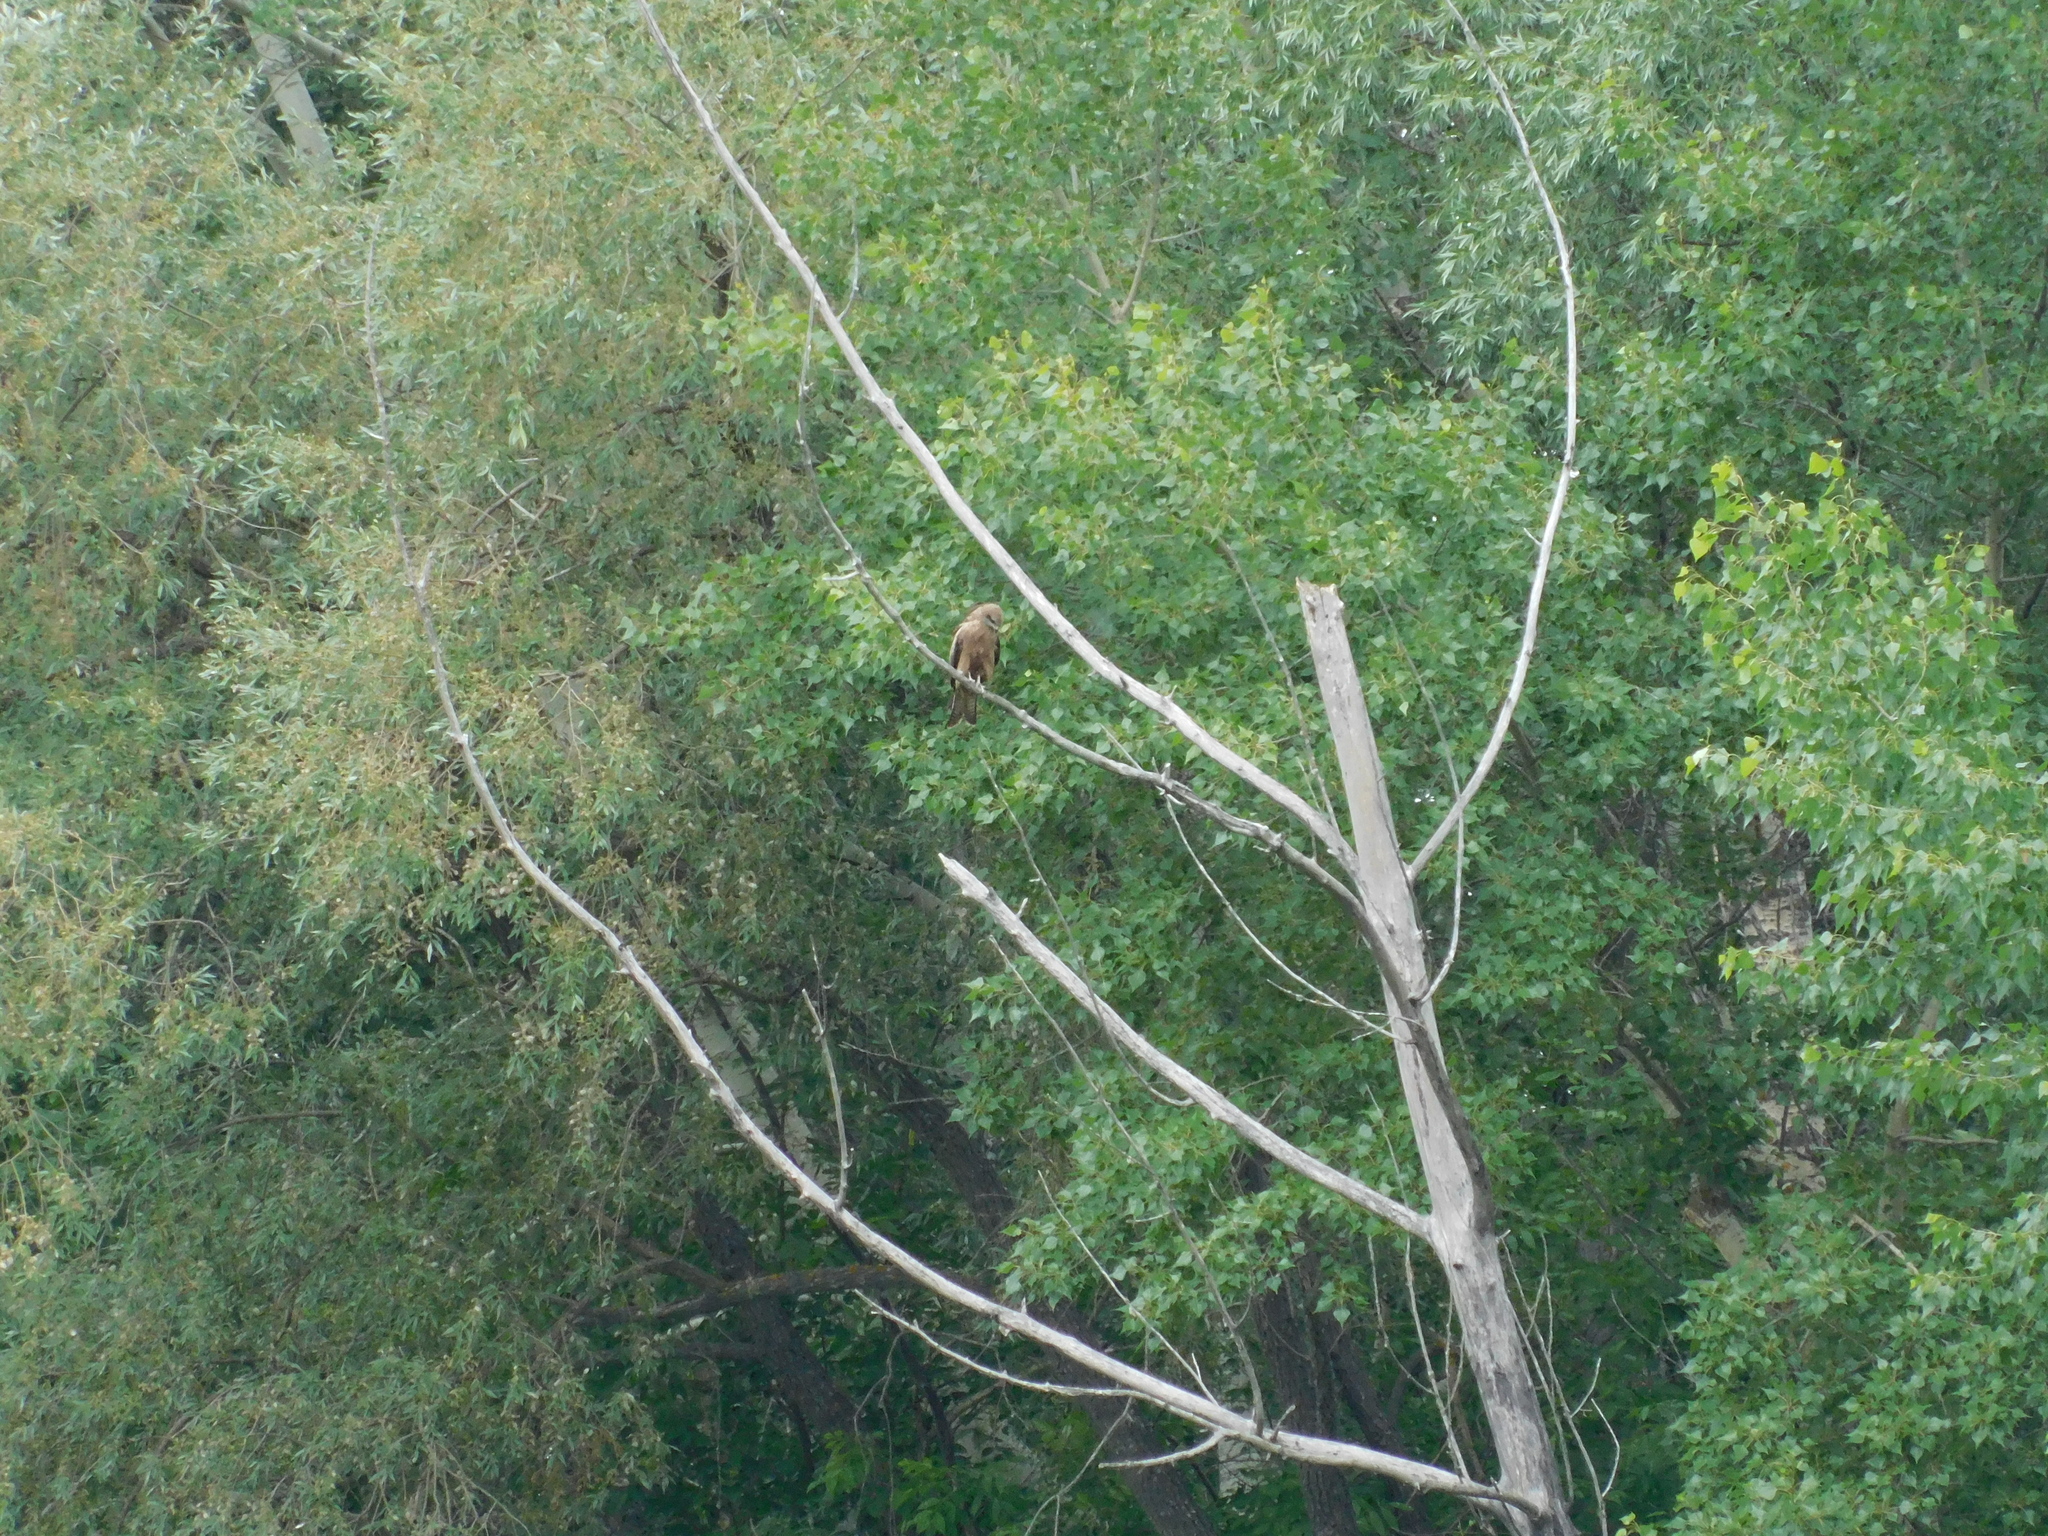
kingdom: Animalia
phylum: Chordata
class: Aves
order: Accipitriformes
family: Accipitridae
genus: Milvus
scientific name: Milvus migrans
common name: Black kite
